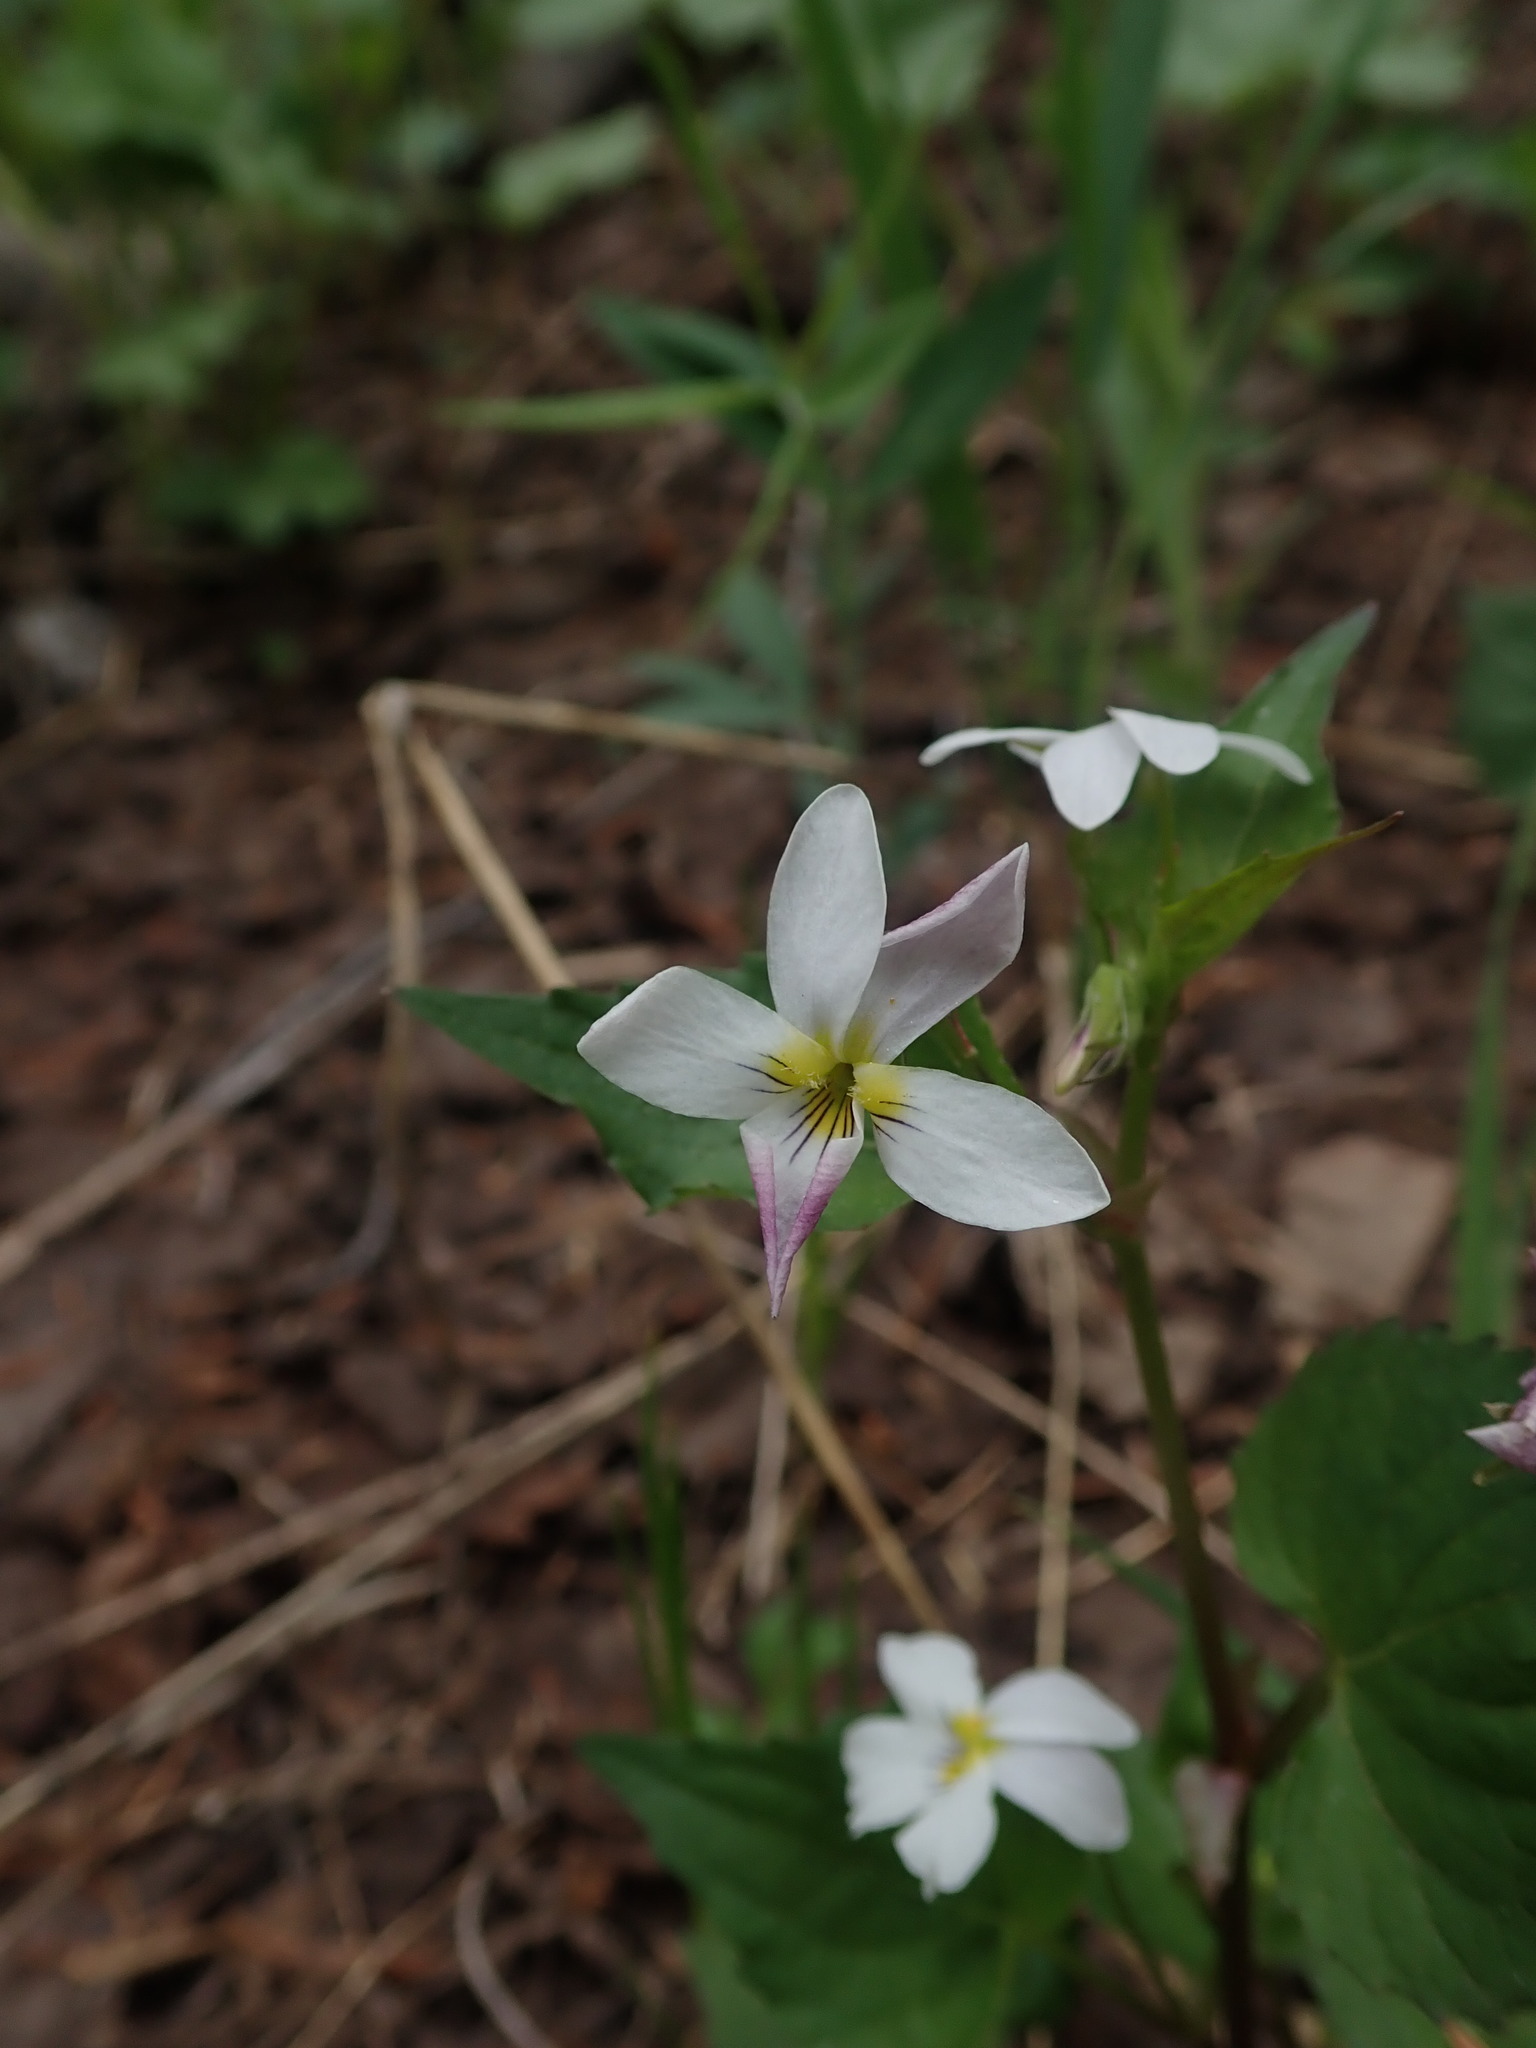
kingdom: Plantae
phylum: Tracheophyta
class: Magnoliopsida
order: Malpighiales
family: Violaceae
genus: Viola
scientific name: Viola scopulorum
